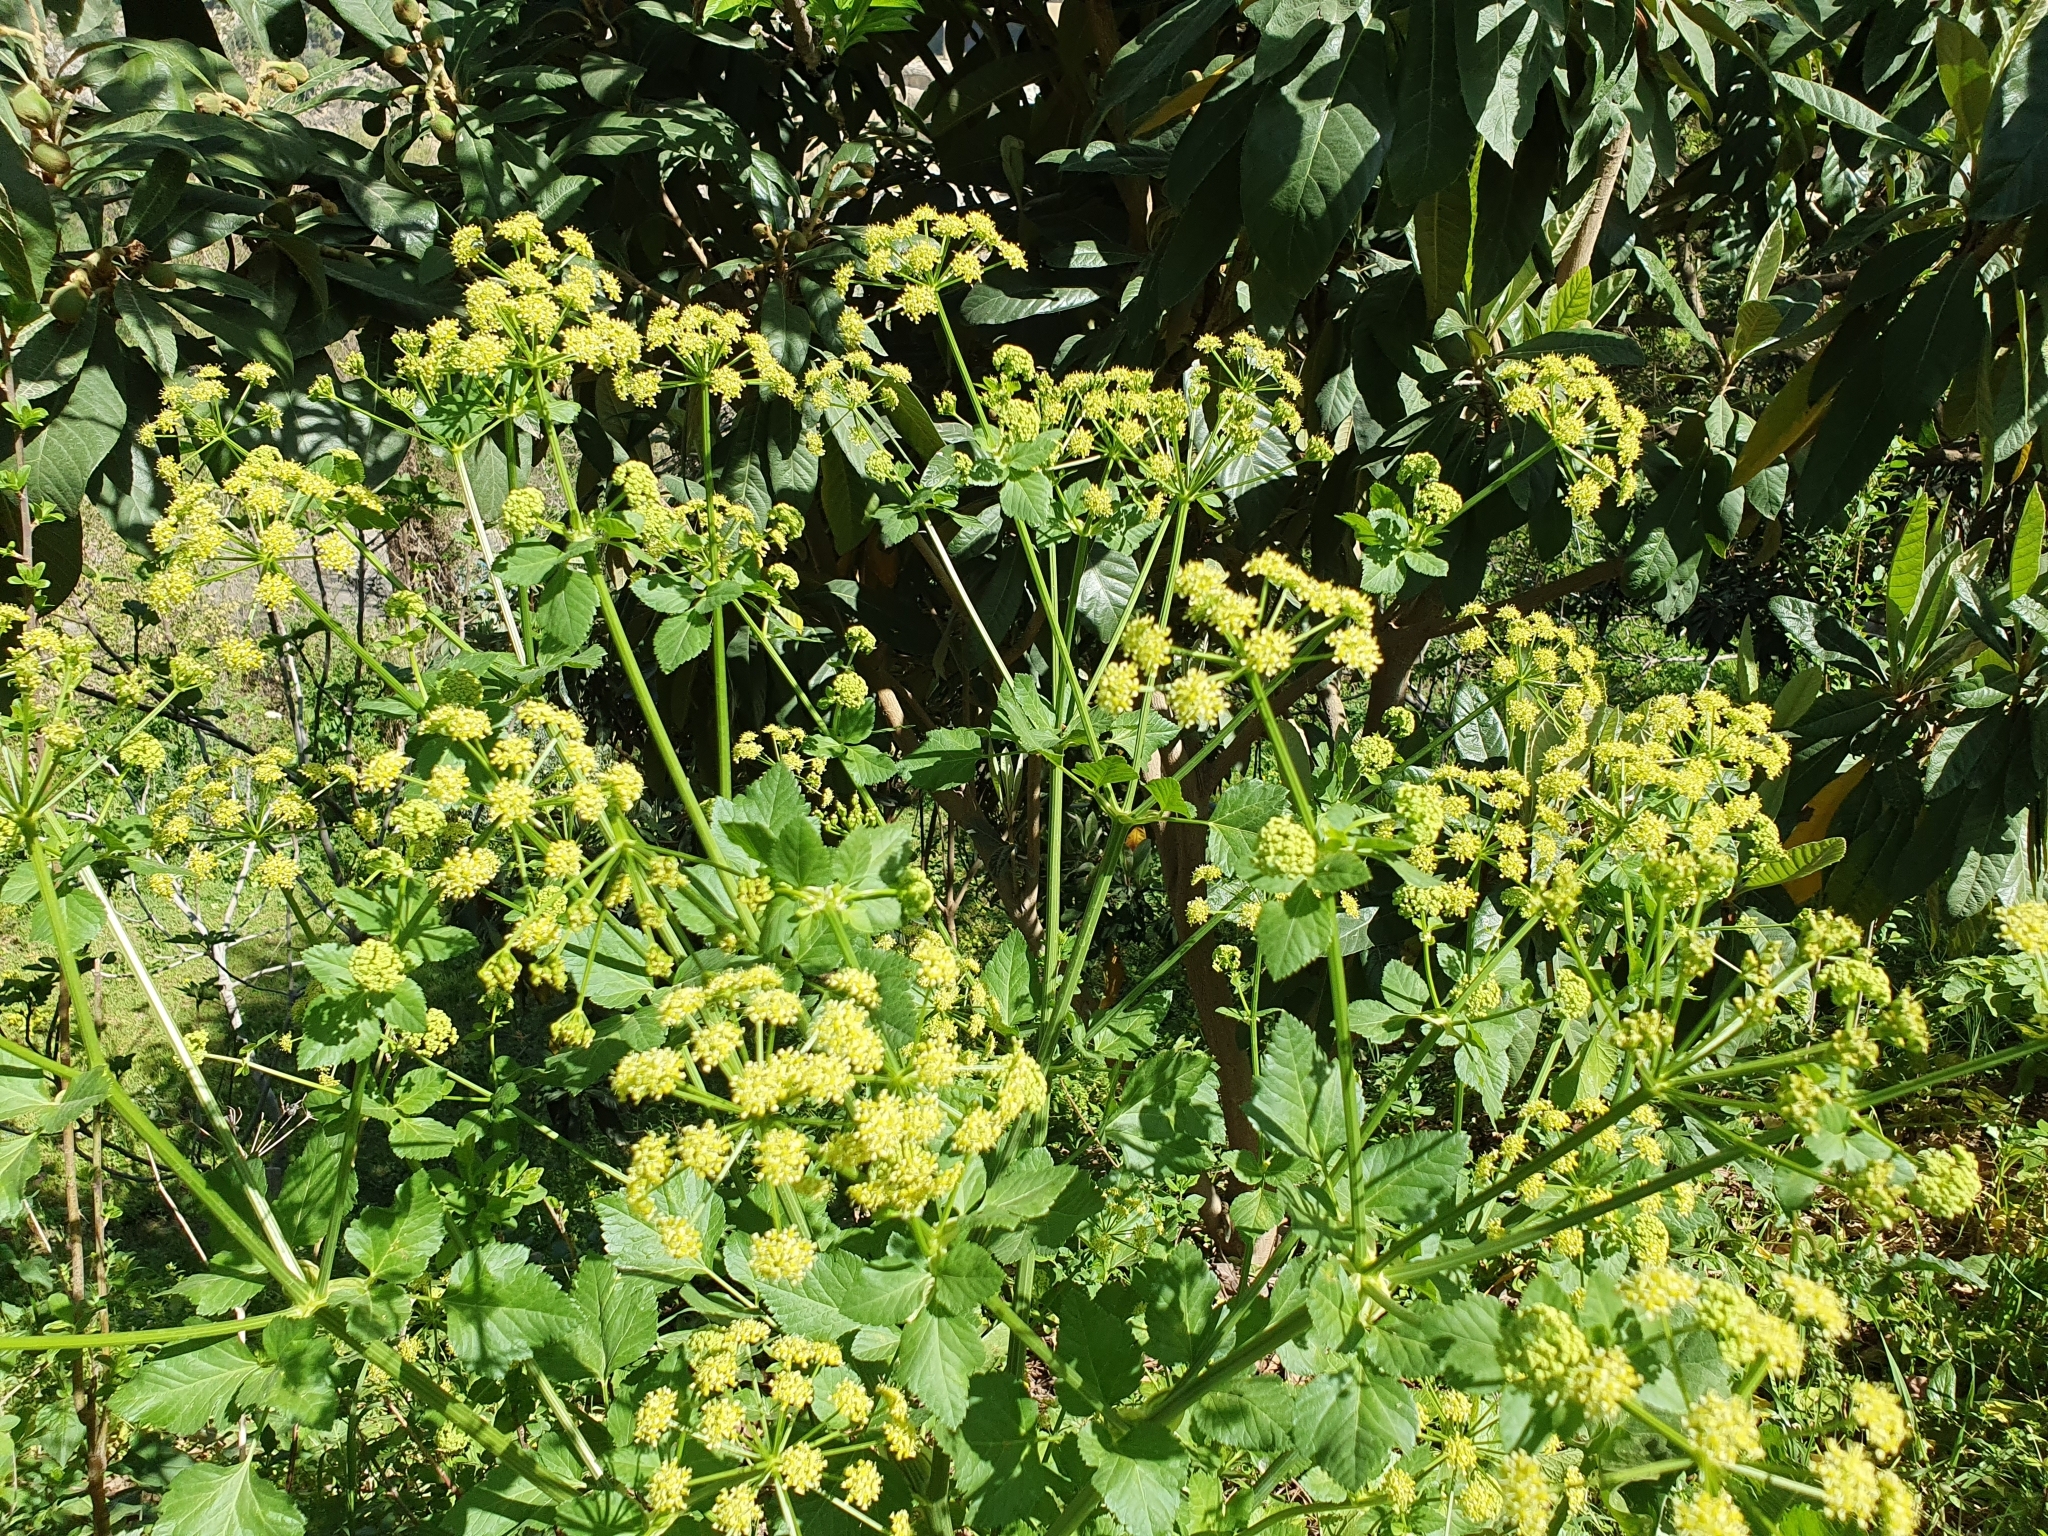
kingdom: Plantae
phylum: Tracheophyta
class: Magnoliopsida
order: Apiales
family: Apiaceae
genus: Smyrnium
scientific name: Smyrnium olusatrum
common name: Alexanders
